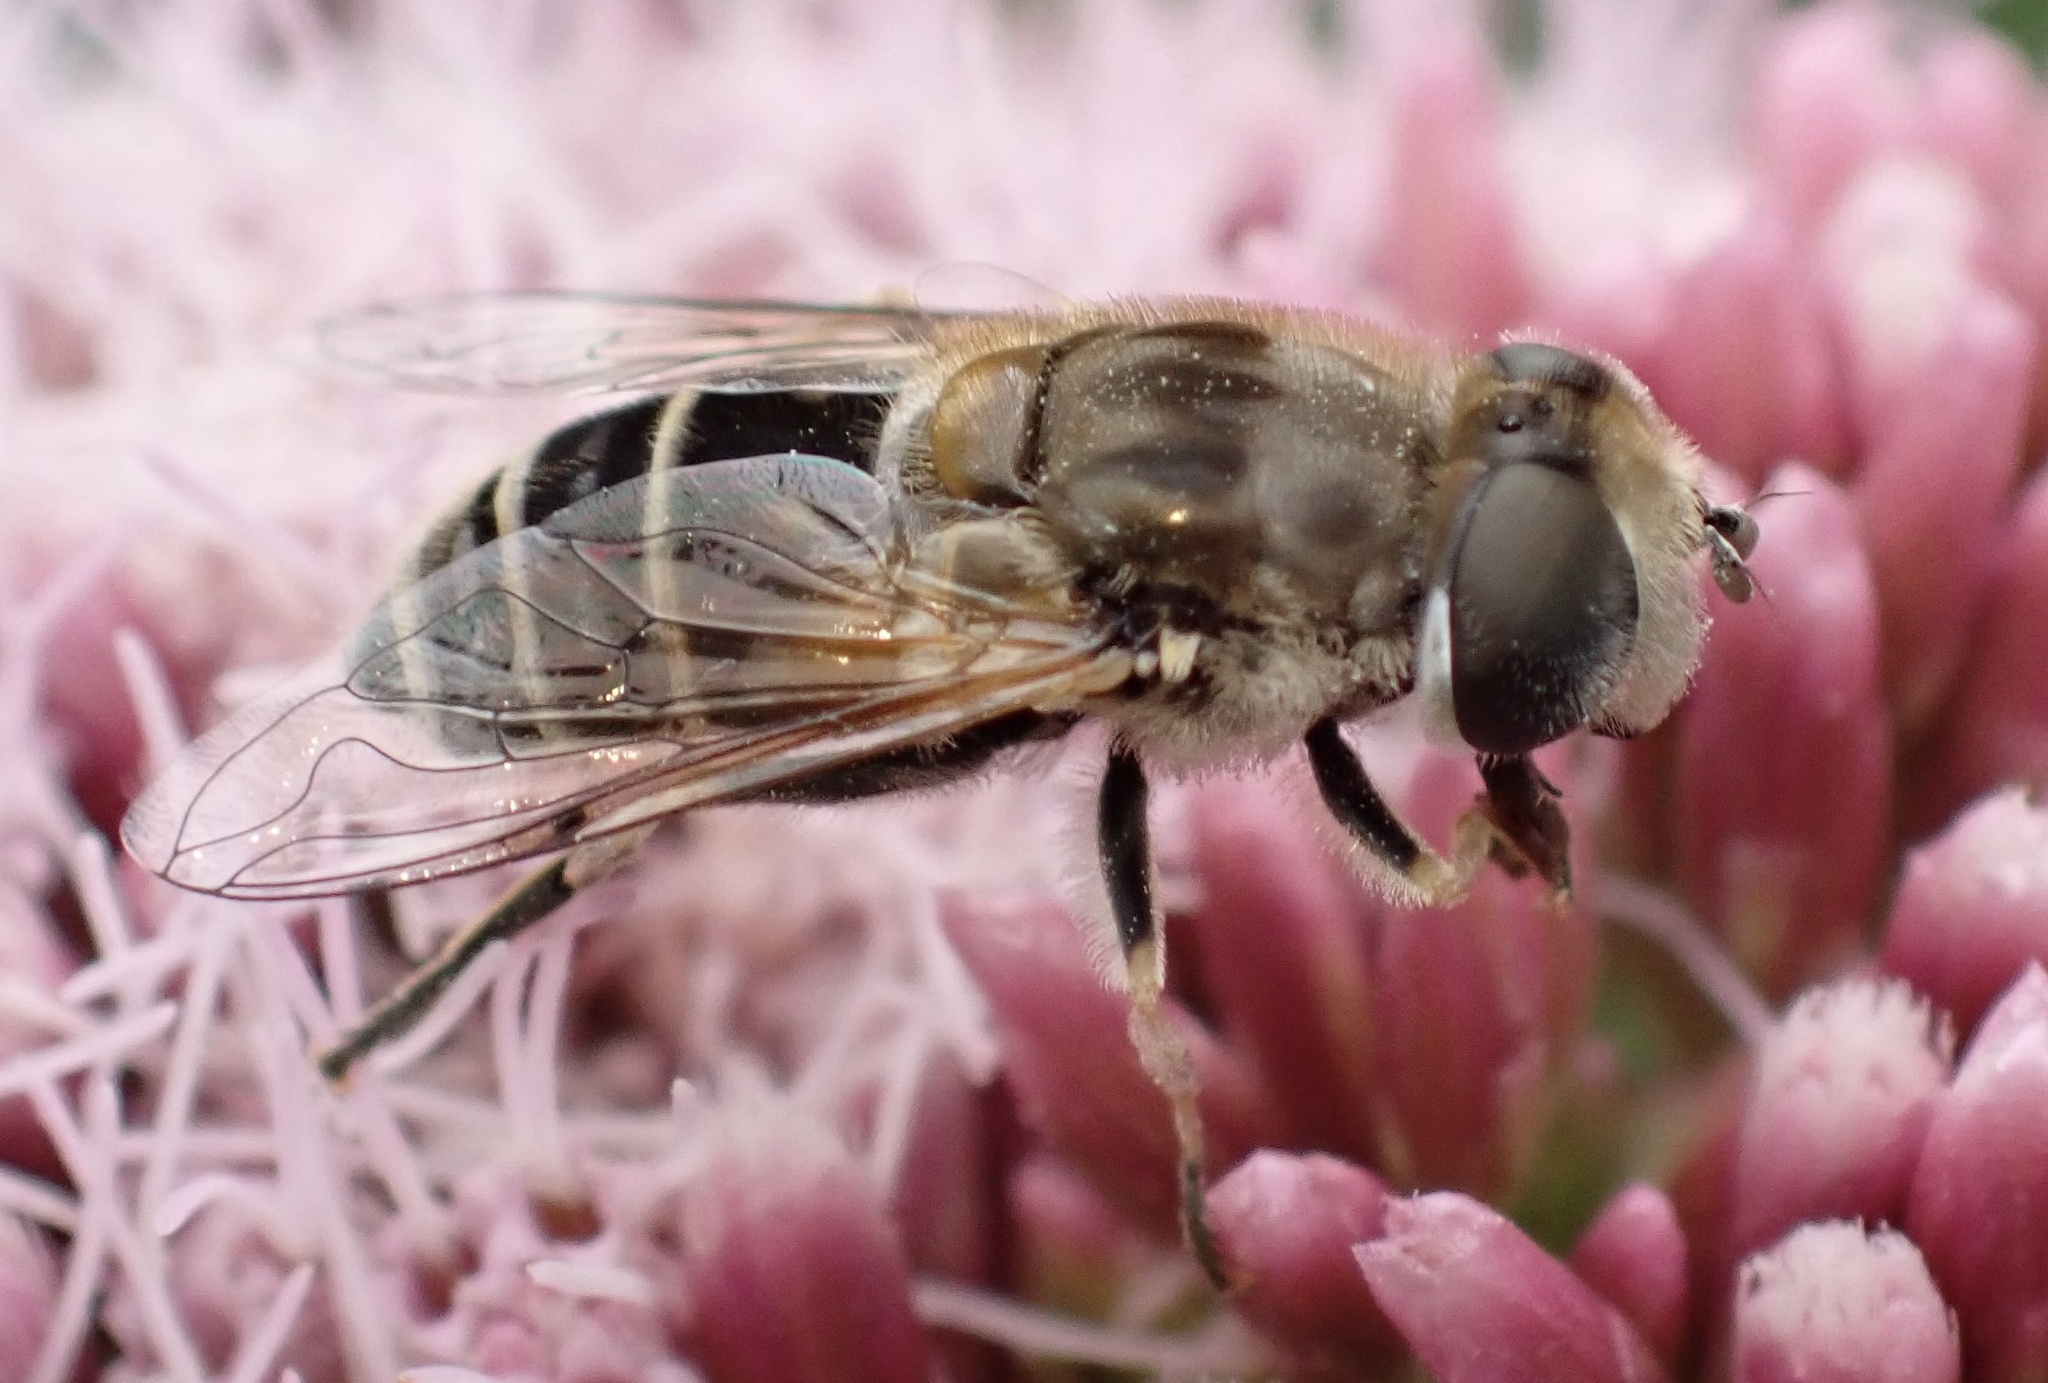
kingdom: Animalia
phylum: Arthropoda
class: Insecta
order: Diptera
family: Syrphidae
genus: Eristalis
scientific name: Eristalis arbustorum
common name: Hover fly
